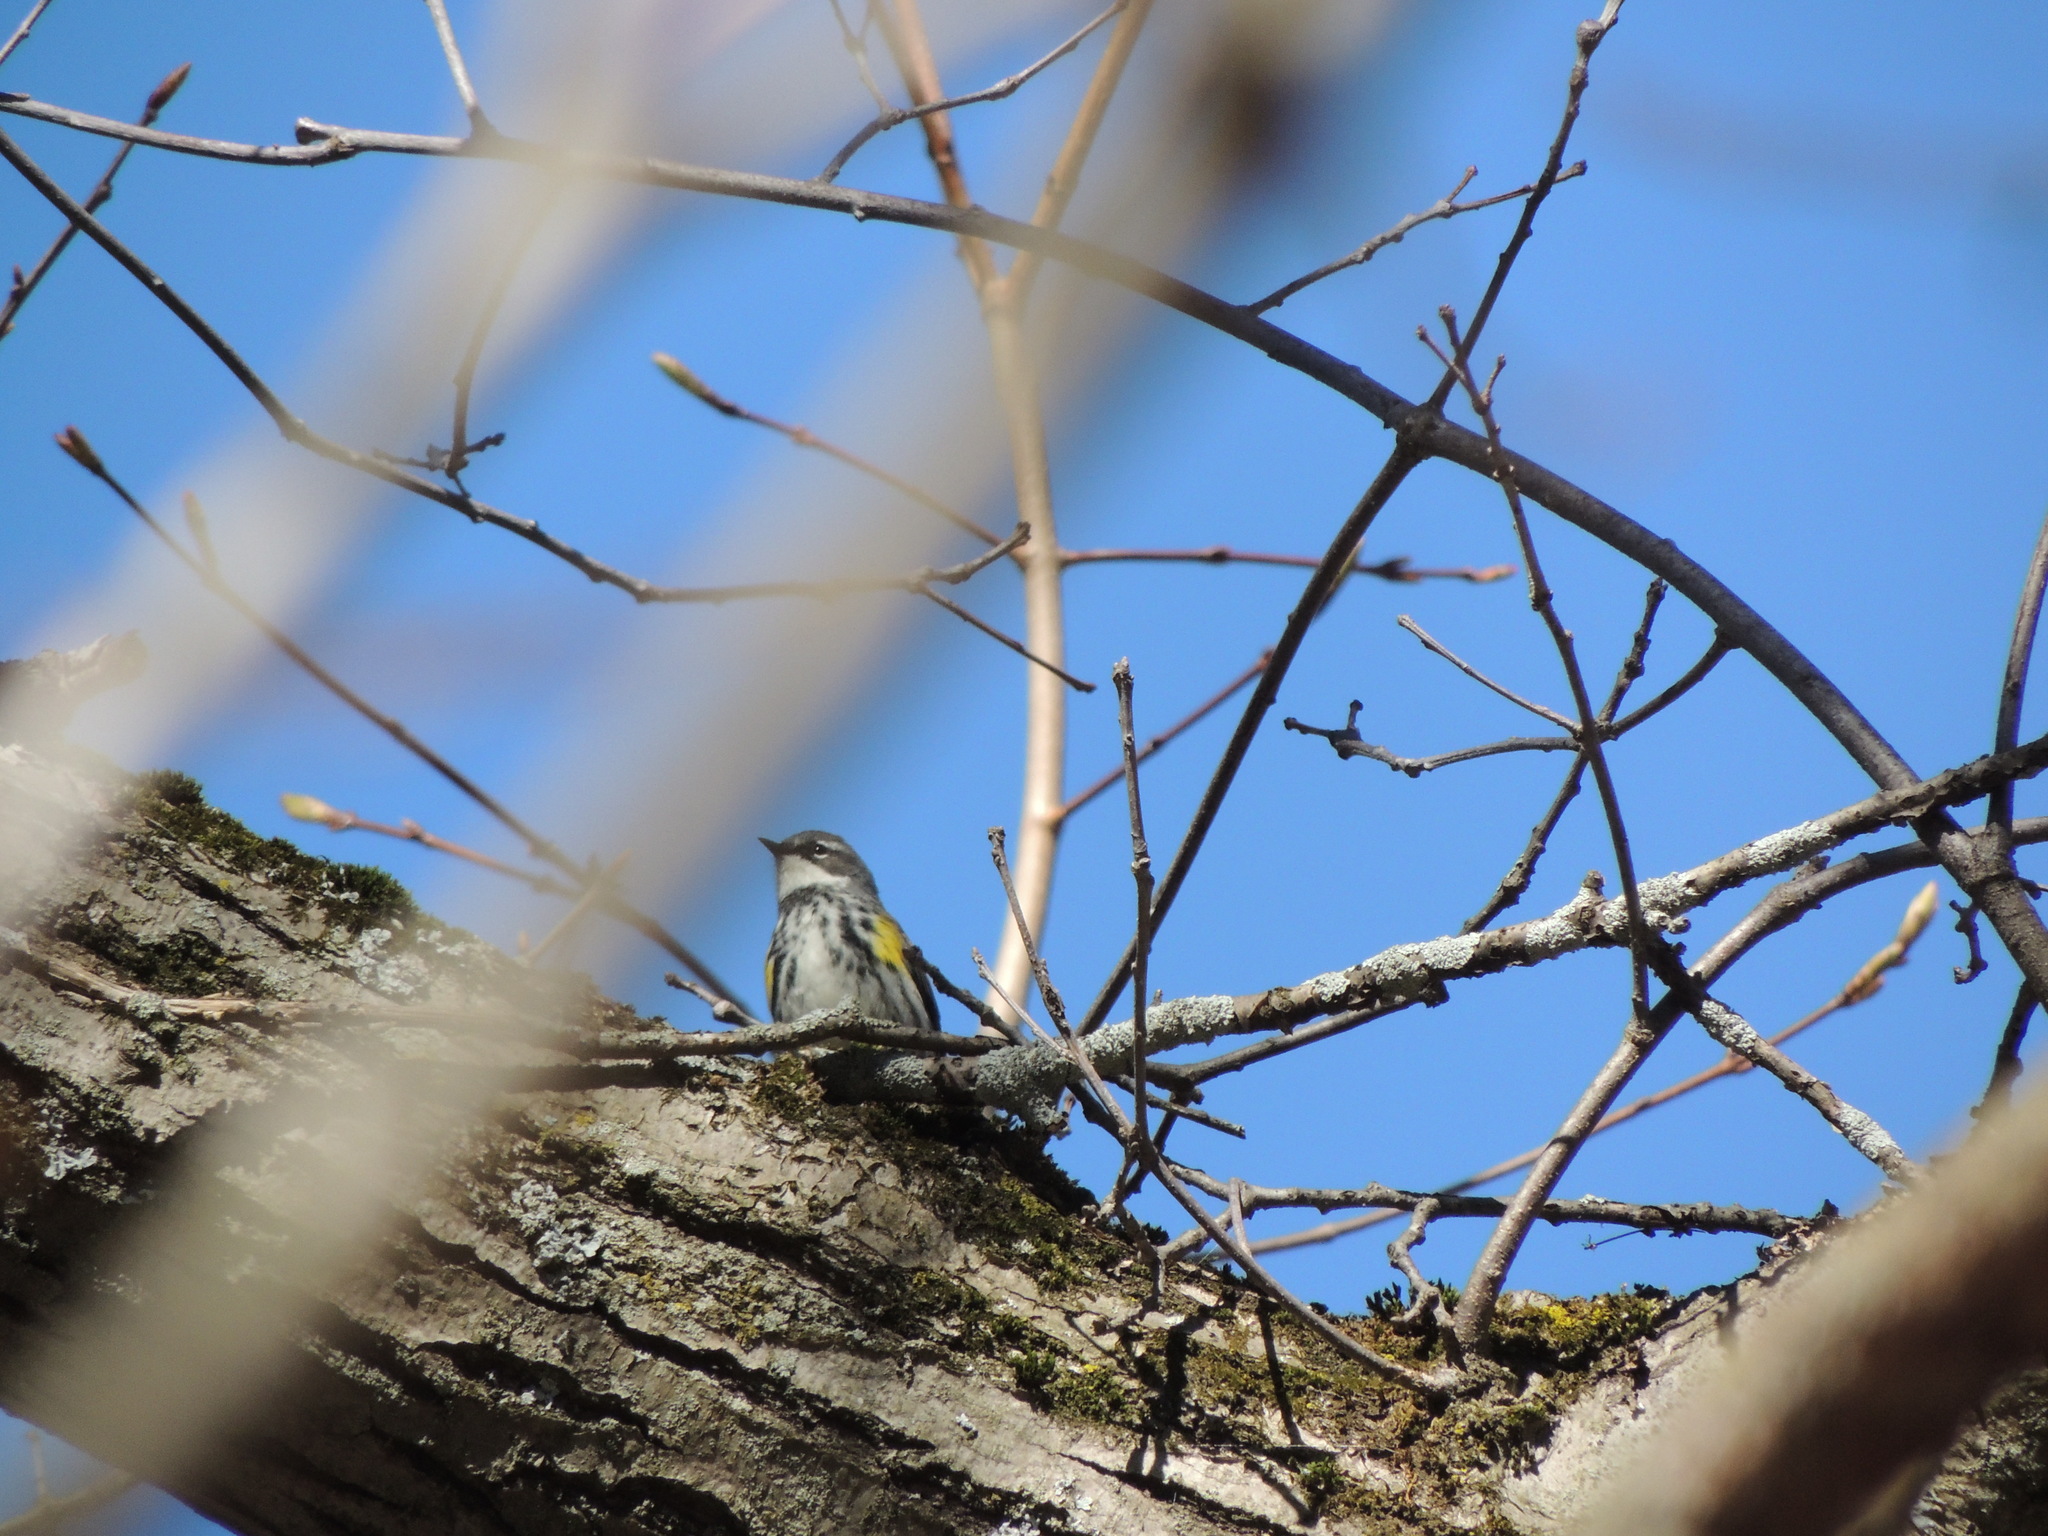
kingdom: Animalia
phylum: Chordata
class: Aves
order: Passeriformes
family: Parulidae
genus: Setophaga
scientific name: Setophaga coronata
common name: Myrtle warbler
